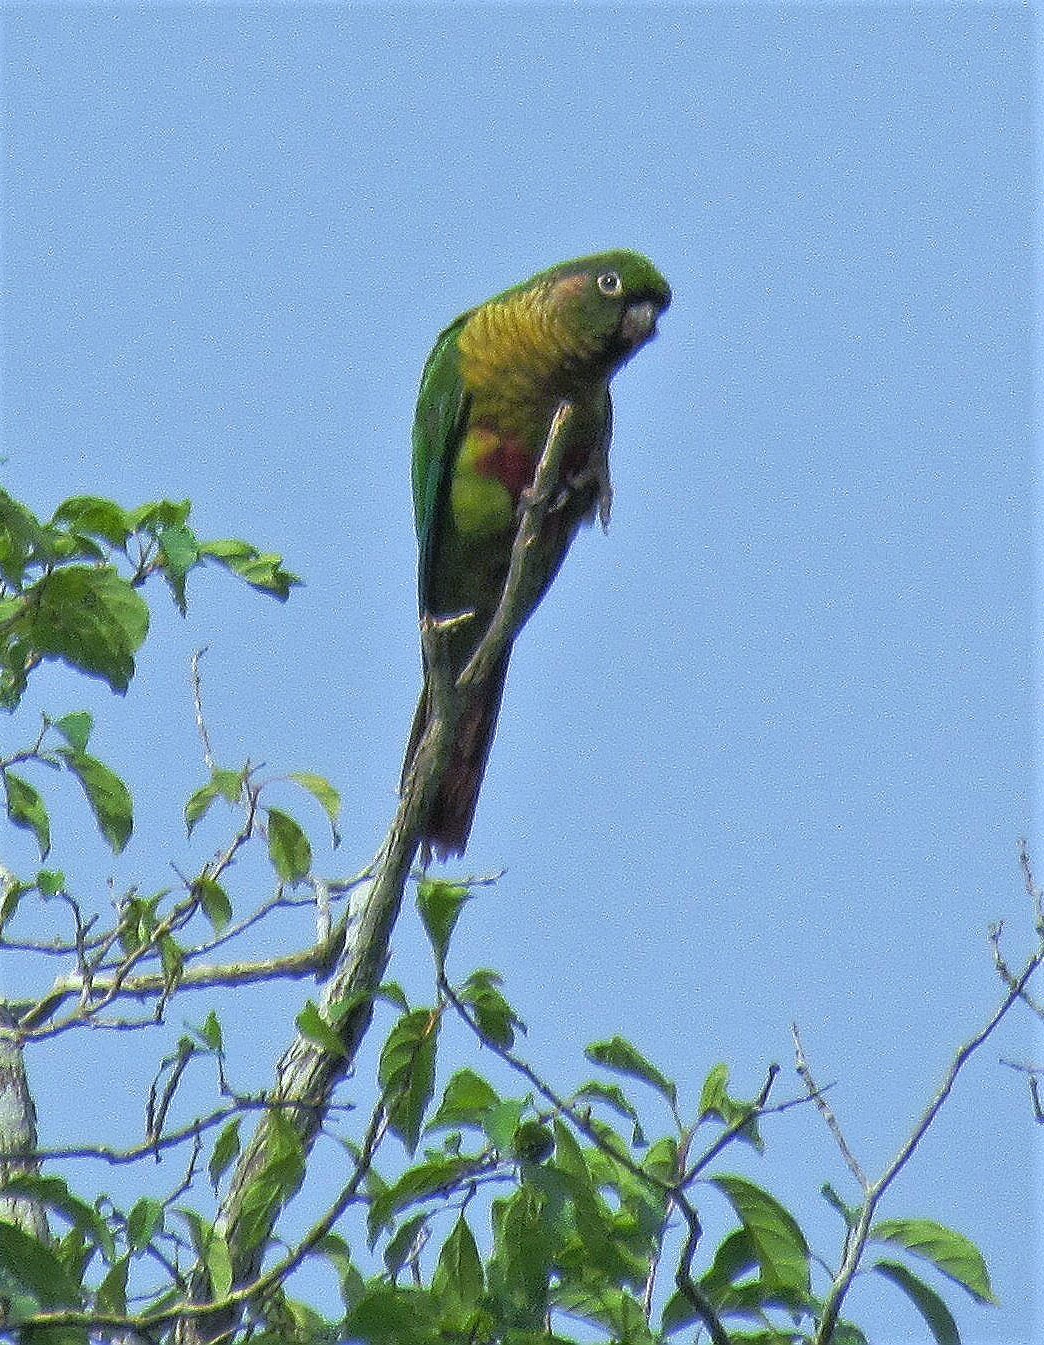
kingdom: Animalia
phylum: Chordata
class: Aves
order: Psittaciformes
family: Psittacidae
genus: Pyrrhura
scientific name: Pyrrhura frontalis
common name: Maroon-bellied parakeet
